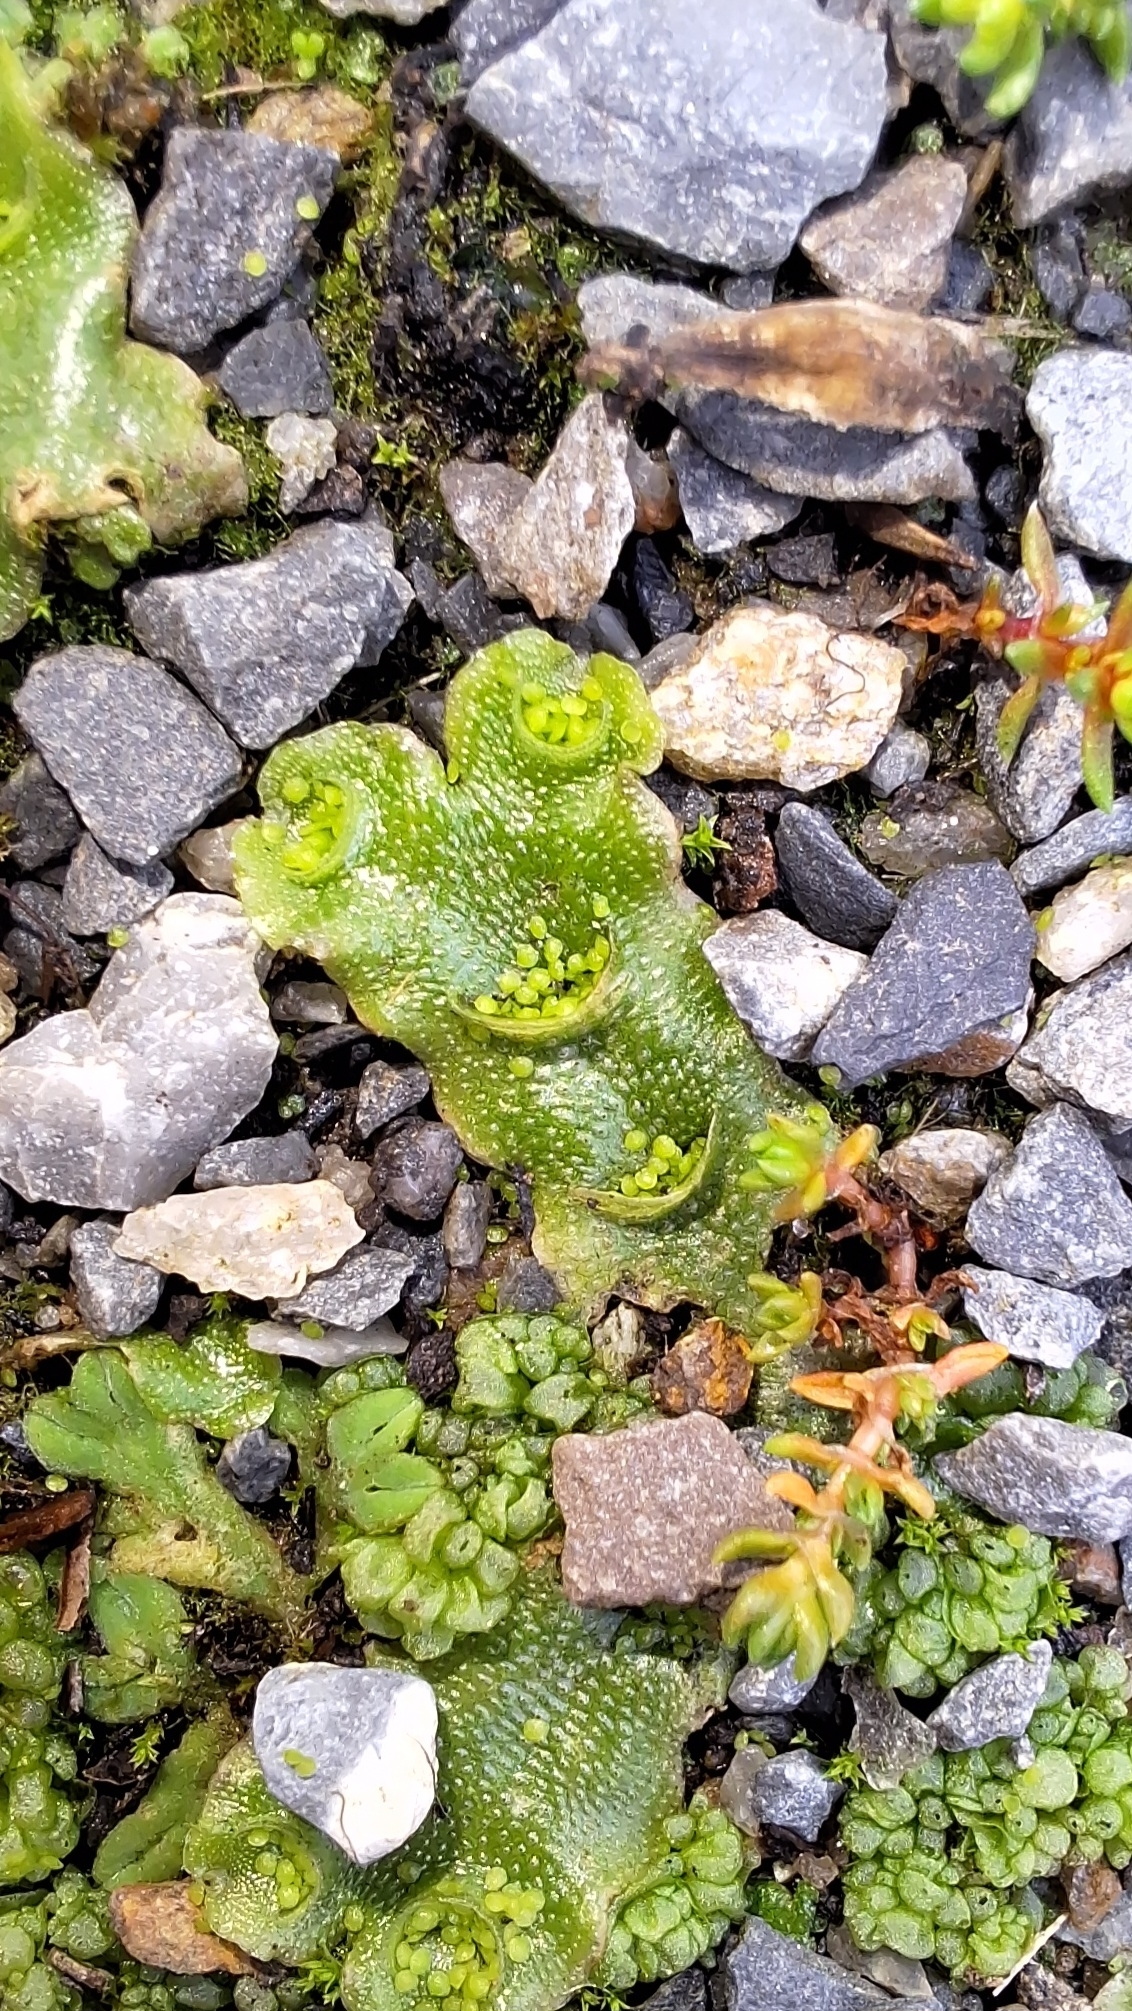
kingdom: Plantae
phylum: Marchantiophyta
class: Marchantiopsida
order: Lunulariales
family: Lunulariaceae
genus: Lunularia
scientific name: Lunularia cruciata
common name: Crescent-cup liverwort
